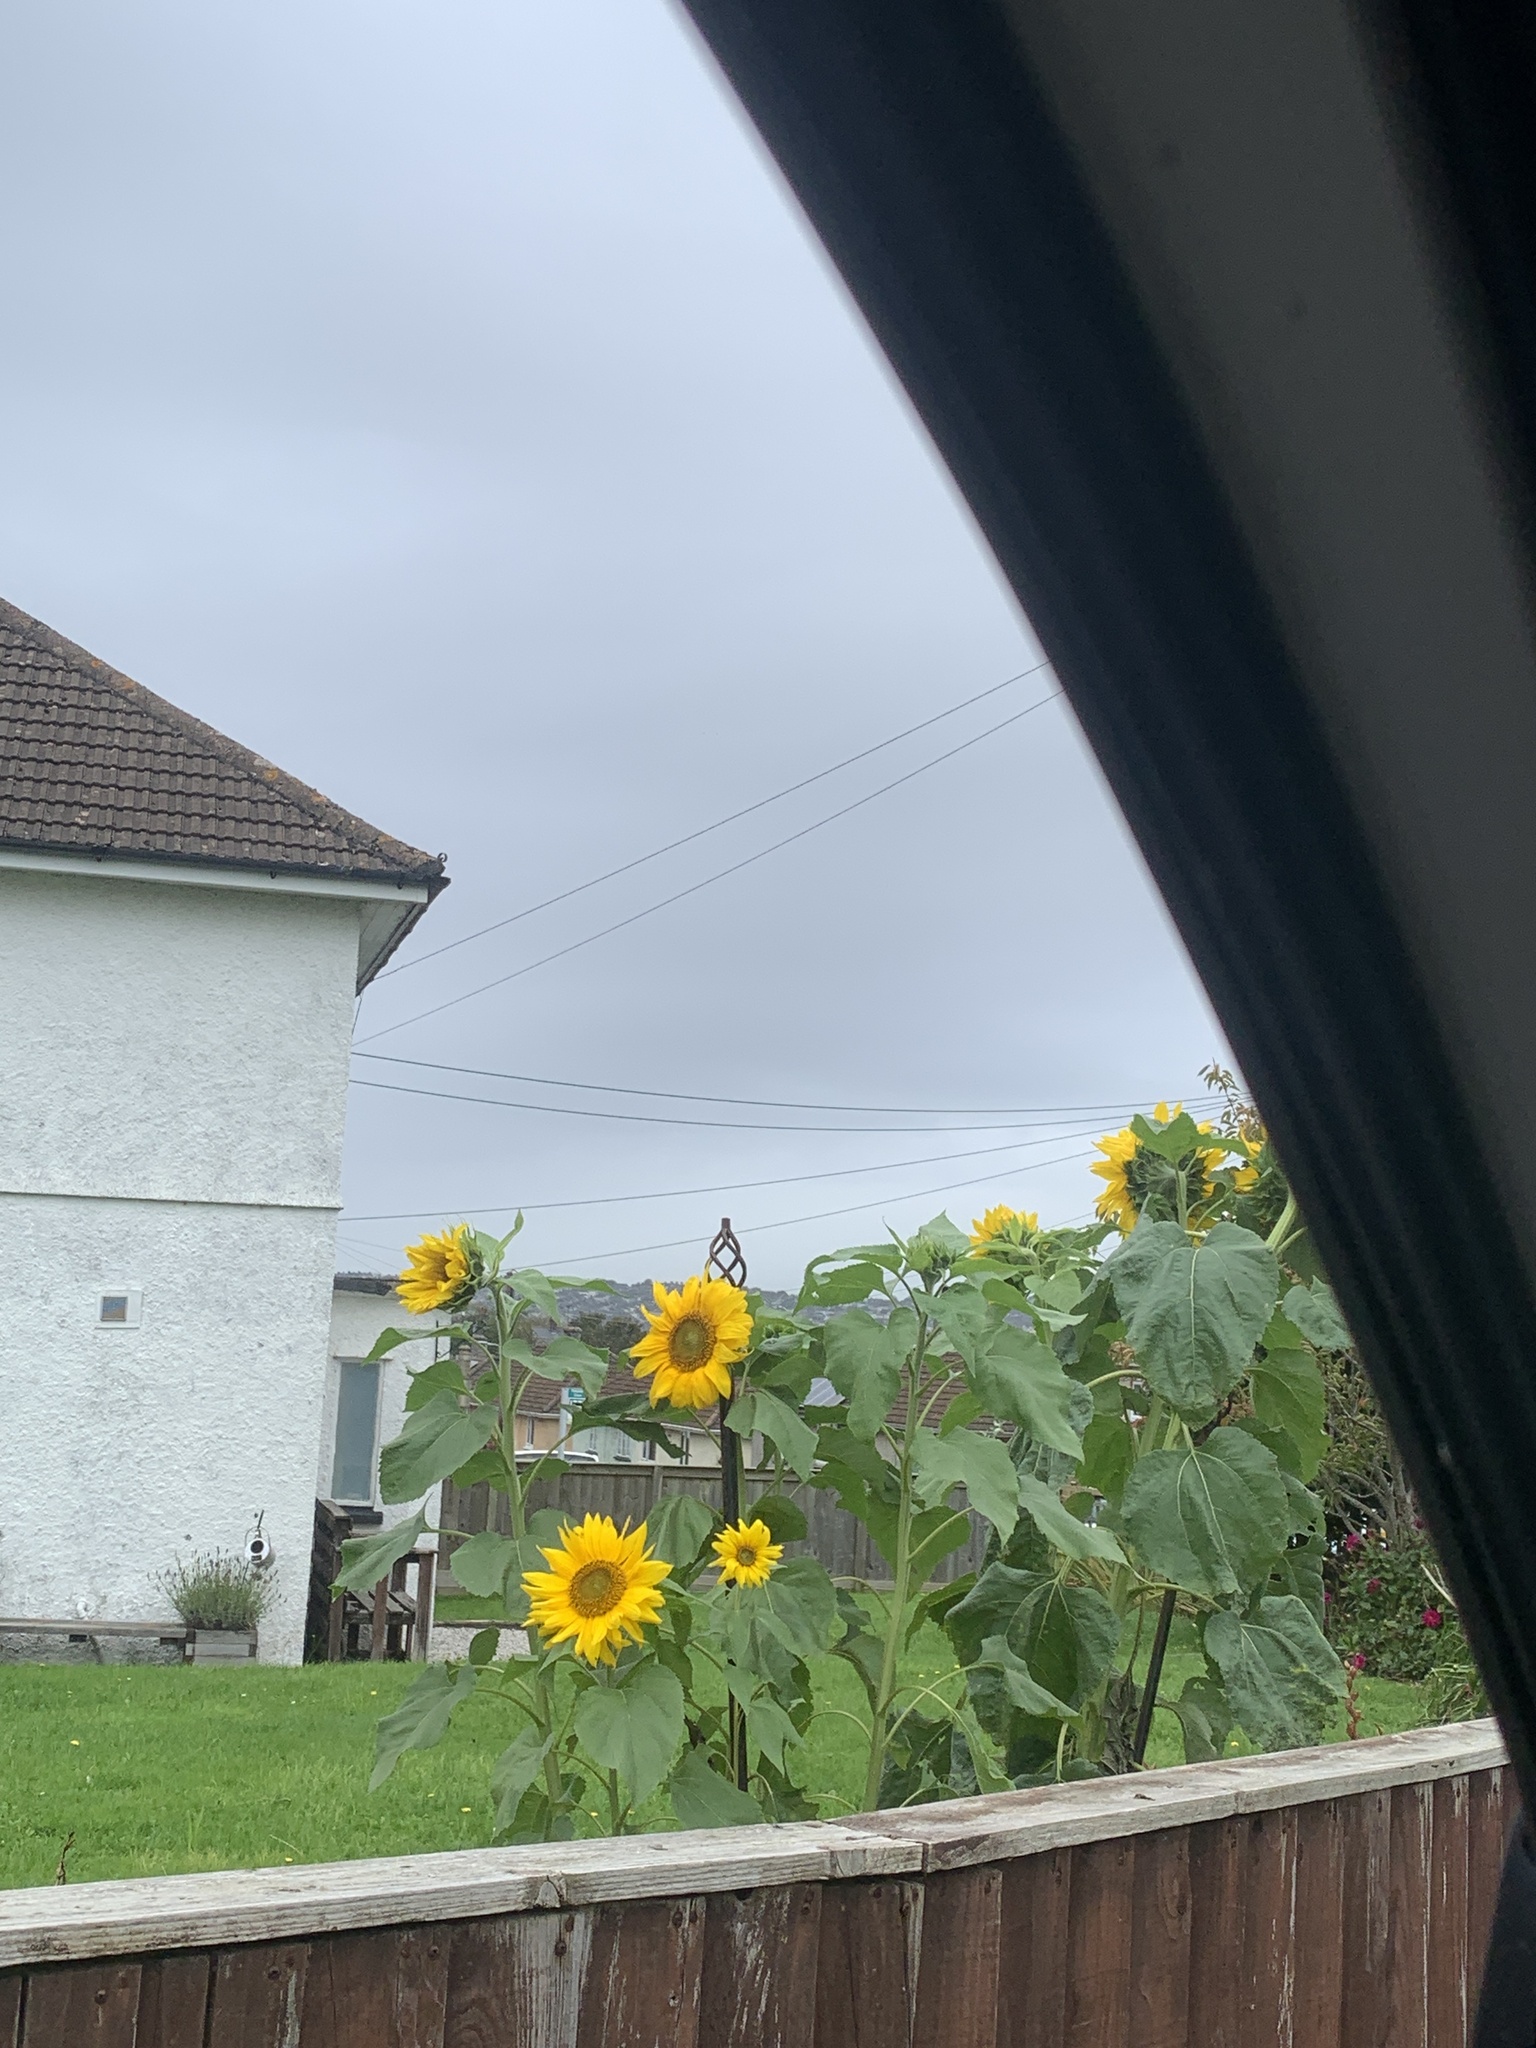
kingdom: Plantae
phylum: Tracheophyta
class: Magnoliopsida
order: Asterales
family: Asteraceae
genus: Helianthus
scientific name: Helianthus annuus
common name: Sunflower
